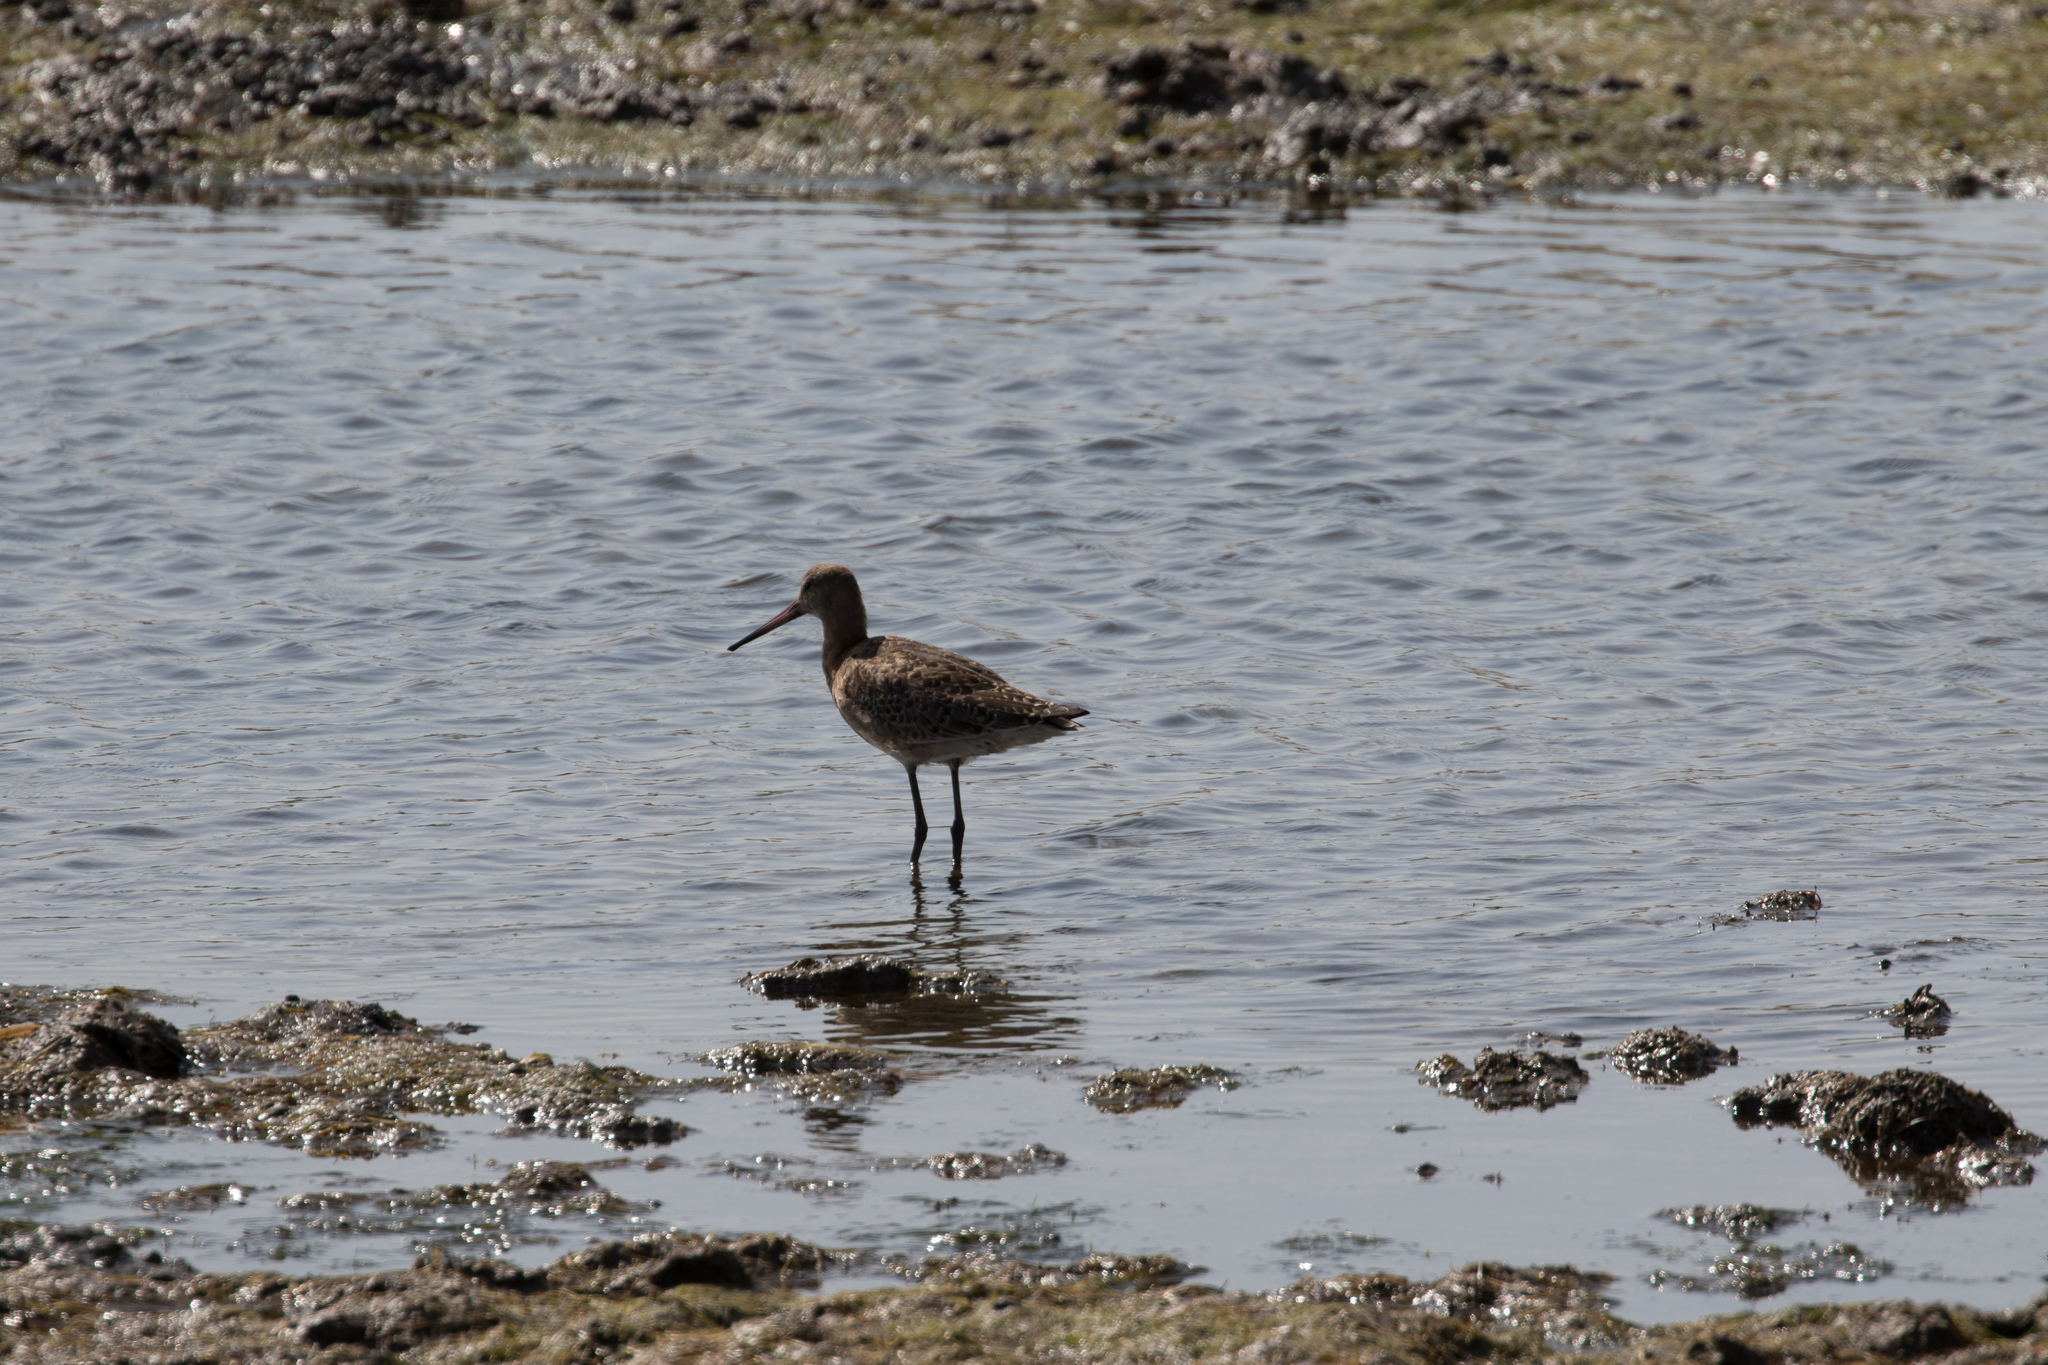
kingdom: Animalia
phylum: Chordata
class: Aves
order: Charadriiformes
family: Scolopacidae
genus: Limosa
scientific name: Limosa limosa
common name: Black-tailed godwit
